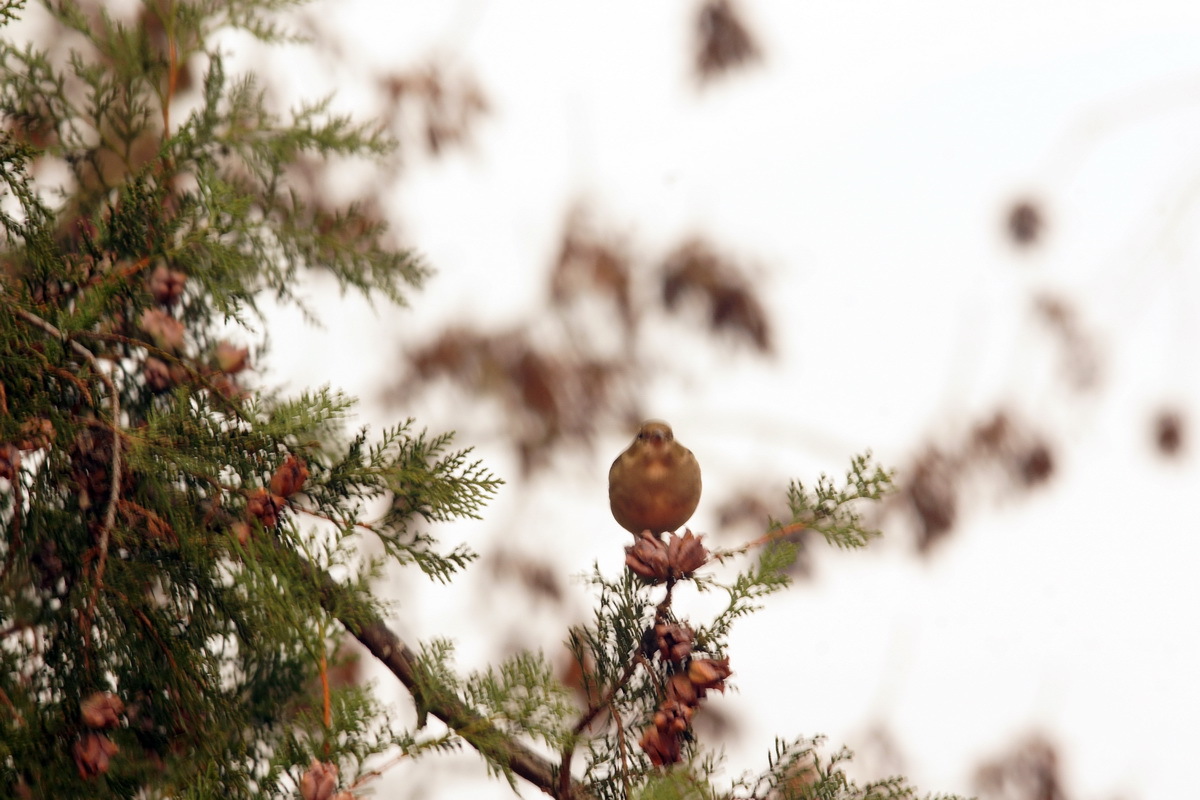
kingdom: Animalia
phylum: Chordata
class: Aves
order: Passeriformes
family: Fringillidae
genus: Fringilla
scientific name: Fringilla coelebs
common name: Common chaffinch
